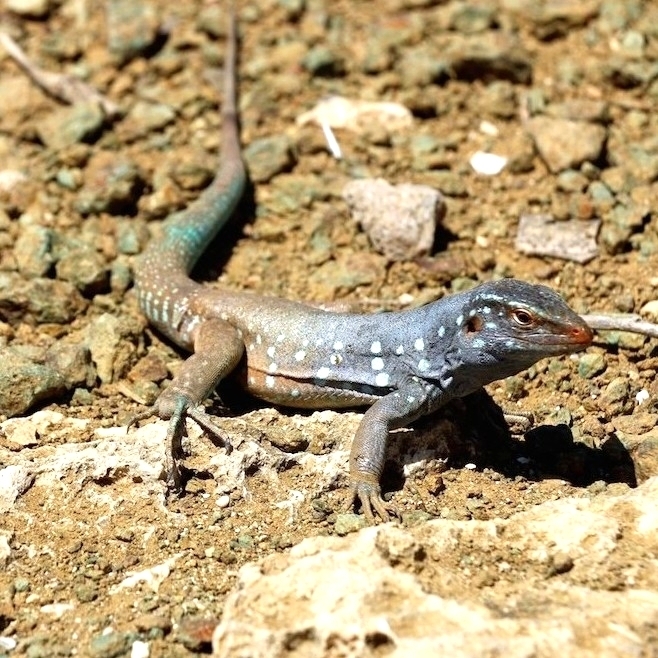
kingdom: Animalia
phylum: Chordata
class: Squamata
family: Teiidae
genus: Cnemidophorus
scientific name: Cnemidophorus ruthveni
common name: Bonaire whiptail
